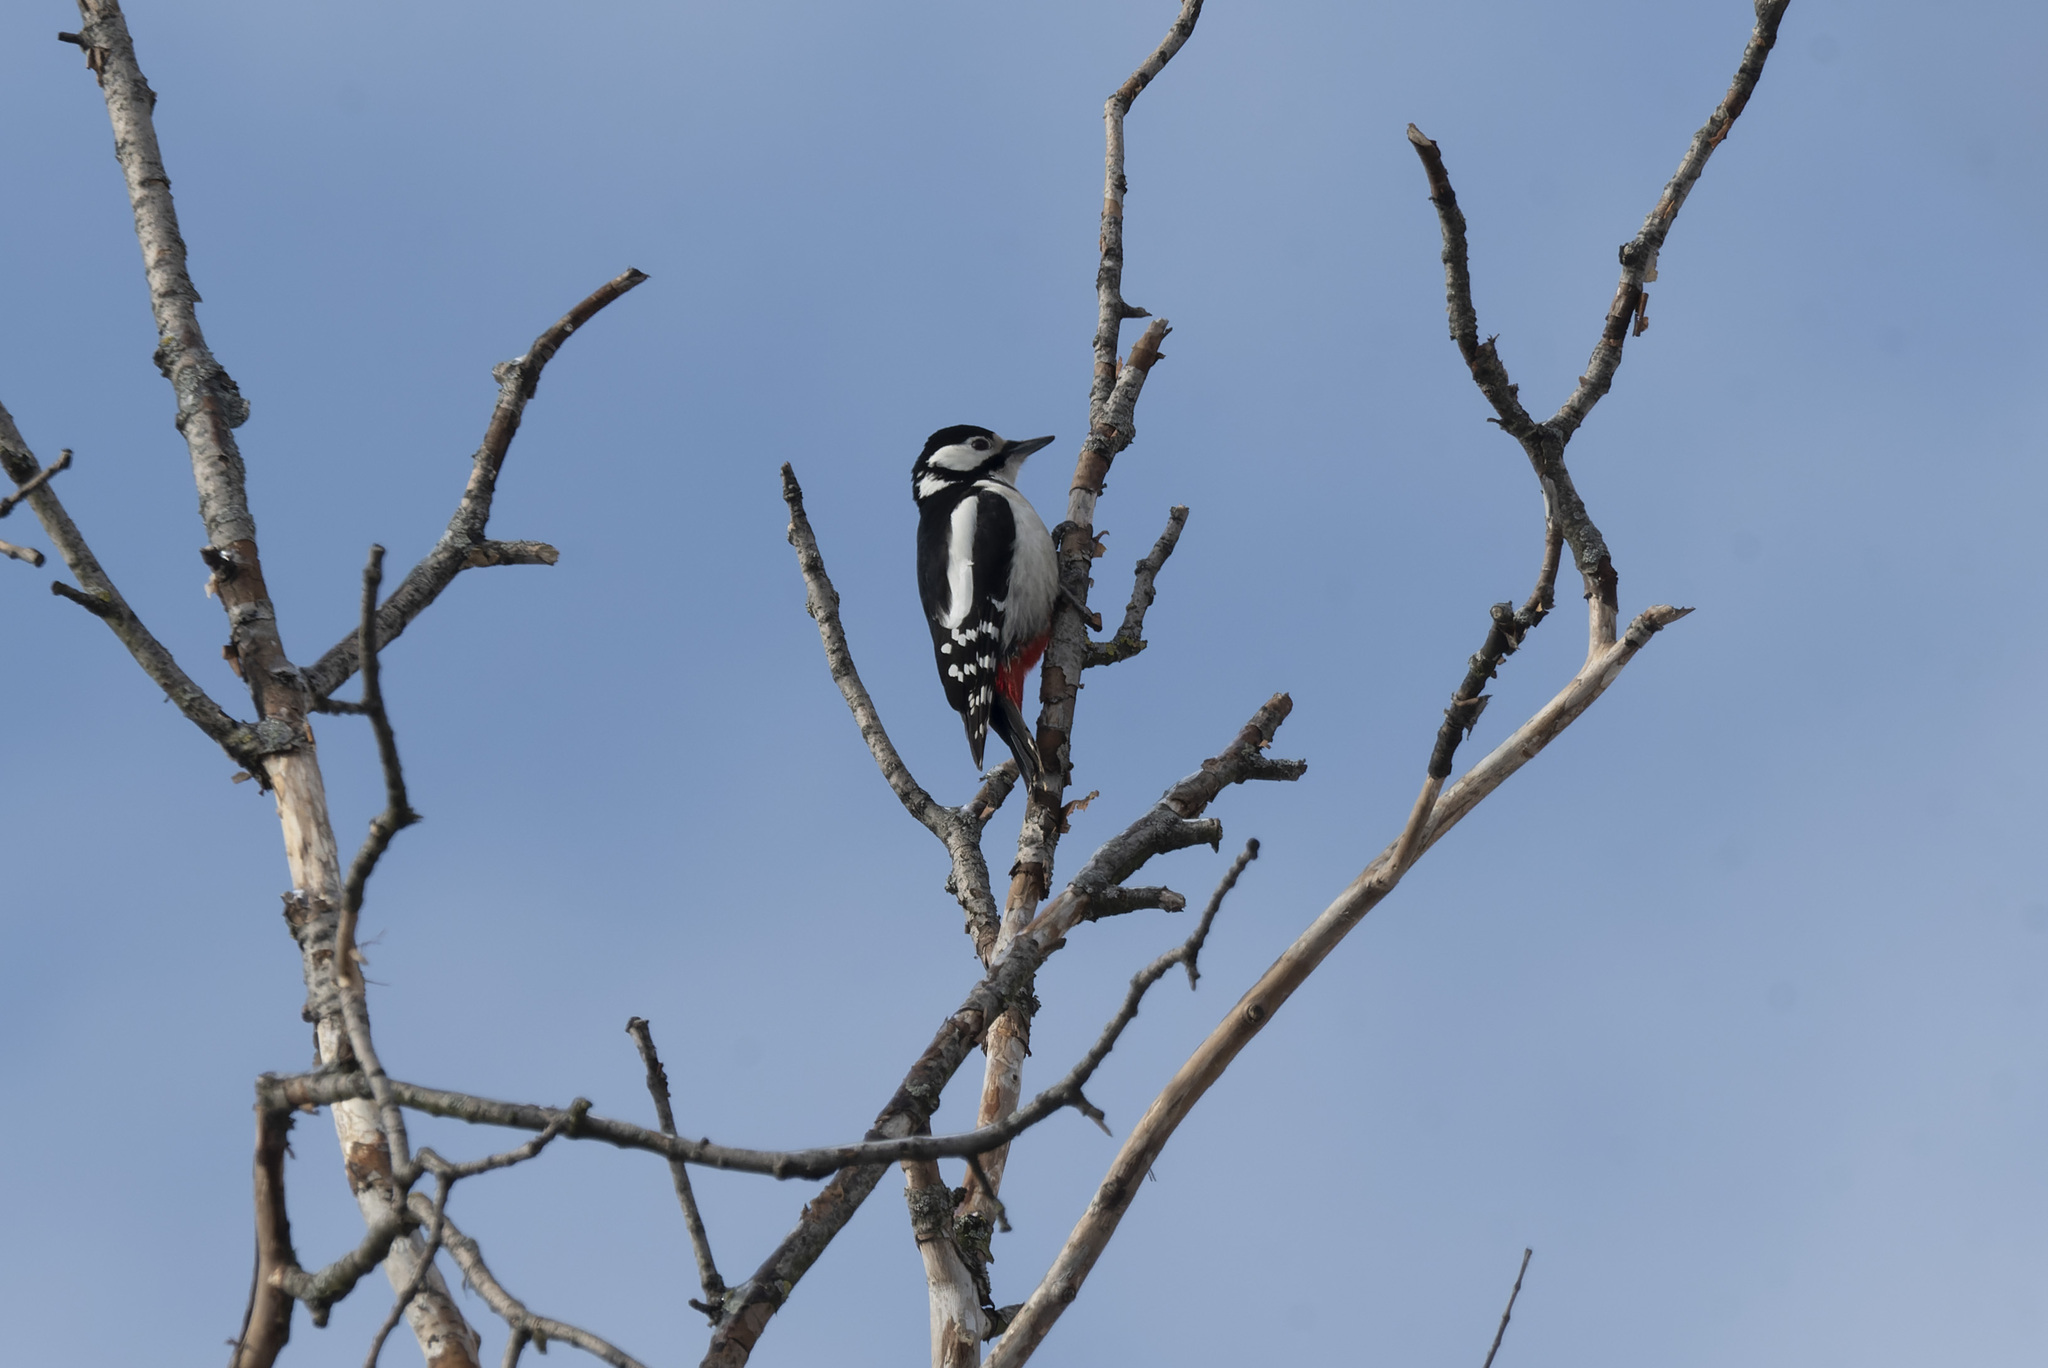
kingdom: Animalia
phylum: Chordata
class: Aves
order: Piciformes
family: Picidae
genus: Dendrocopos
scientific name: Dendrocopos major
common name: Great spotted woodpecker
